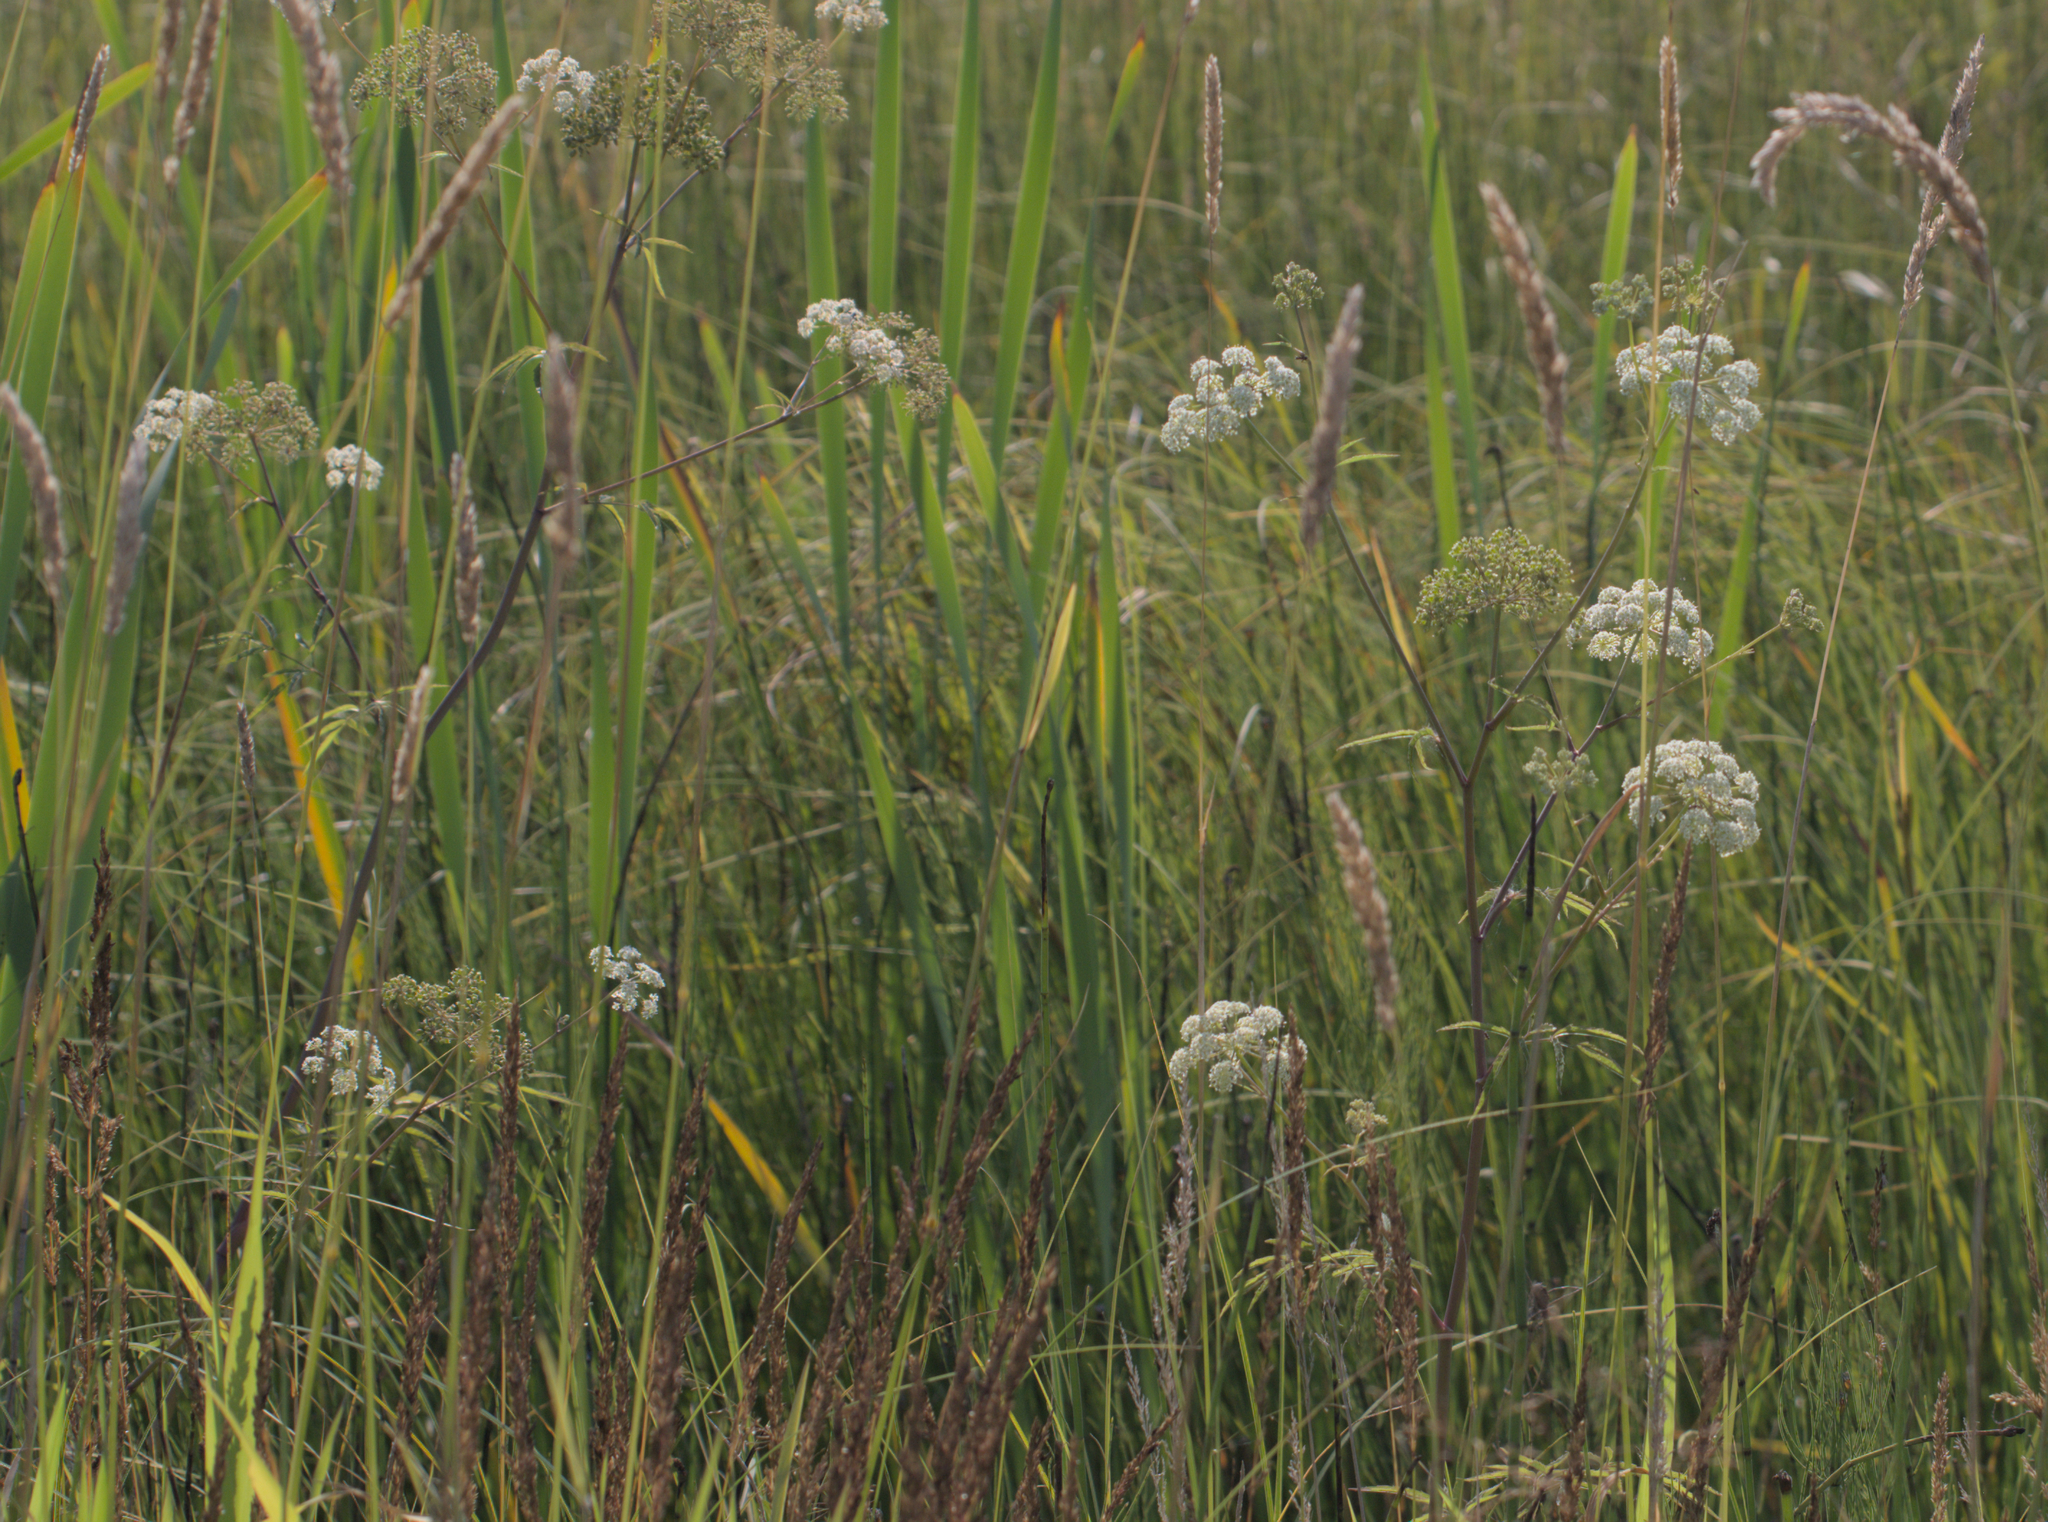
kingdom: Plantae
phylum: Tracheophyta
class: Magnoliopsida
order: Apiales
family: Apiaceae
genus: Cicuta
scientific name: Cicuta maculata
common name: Spotted cowbane
